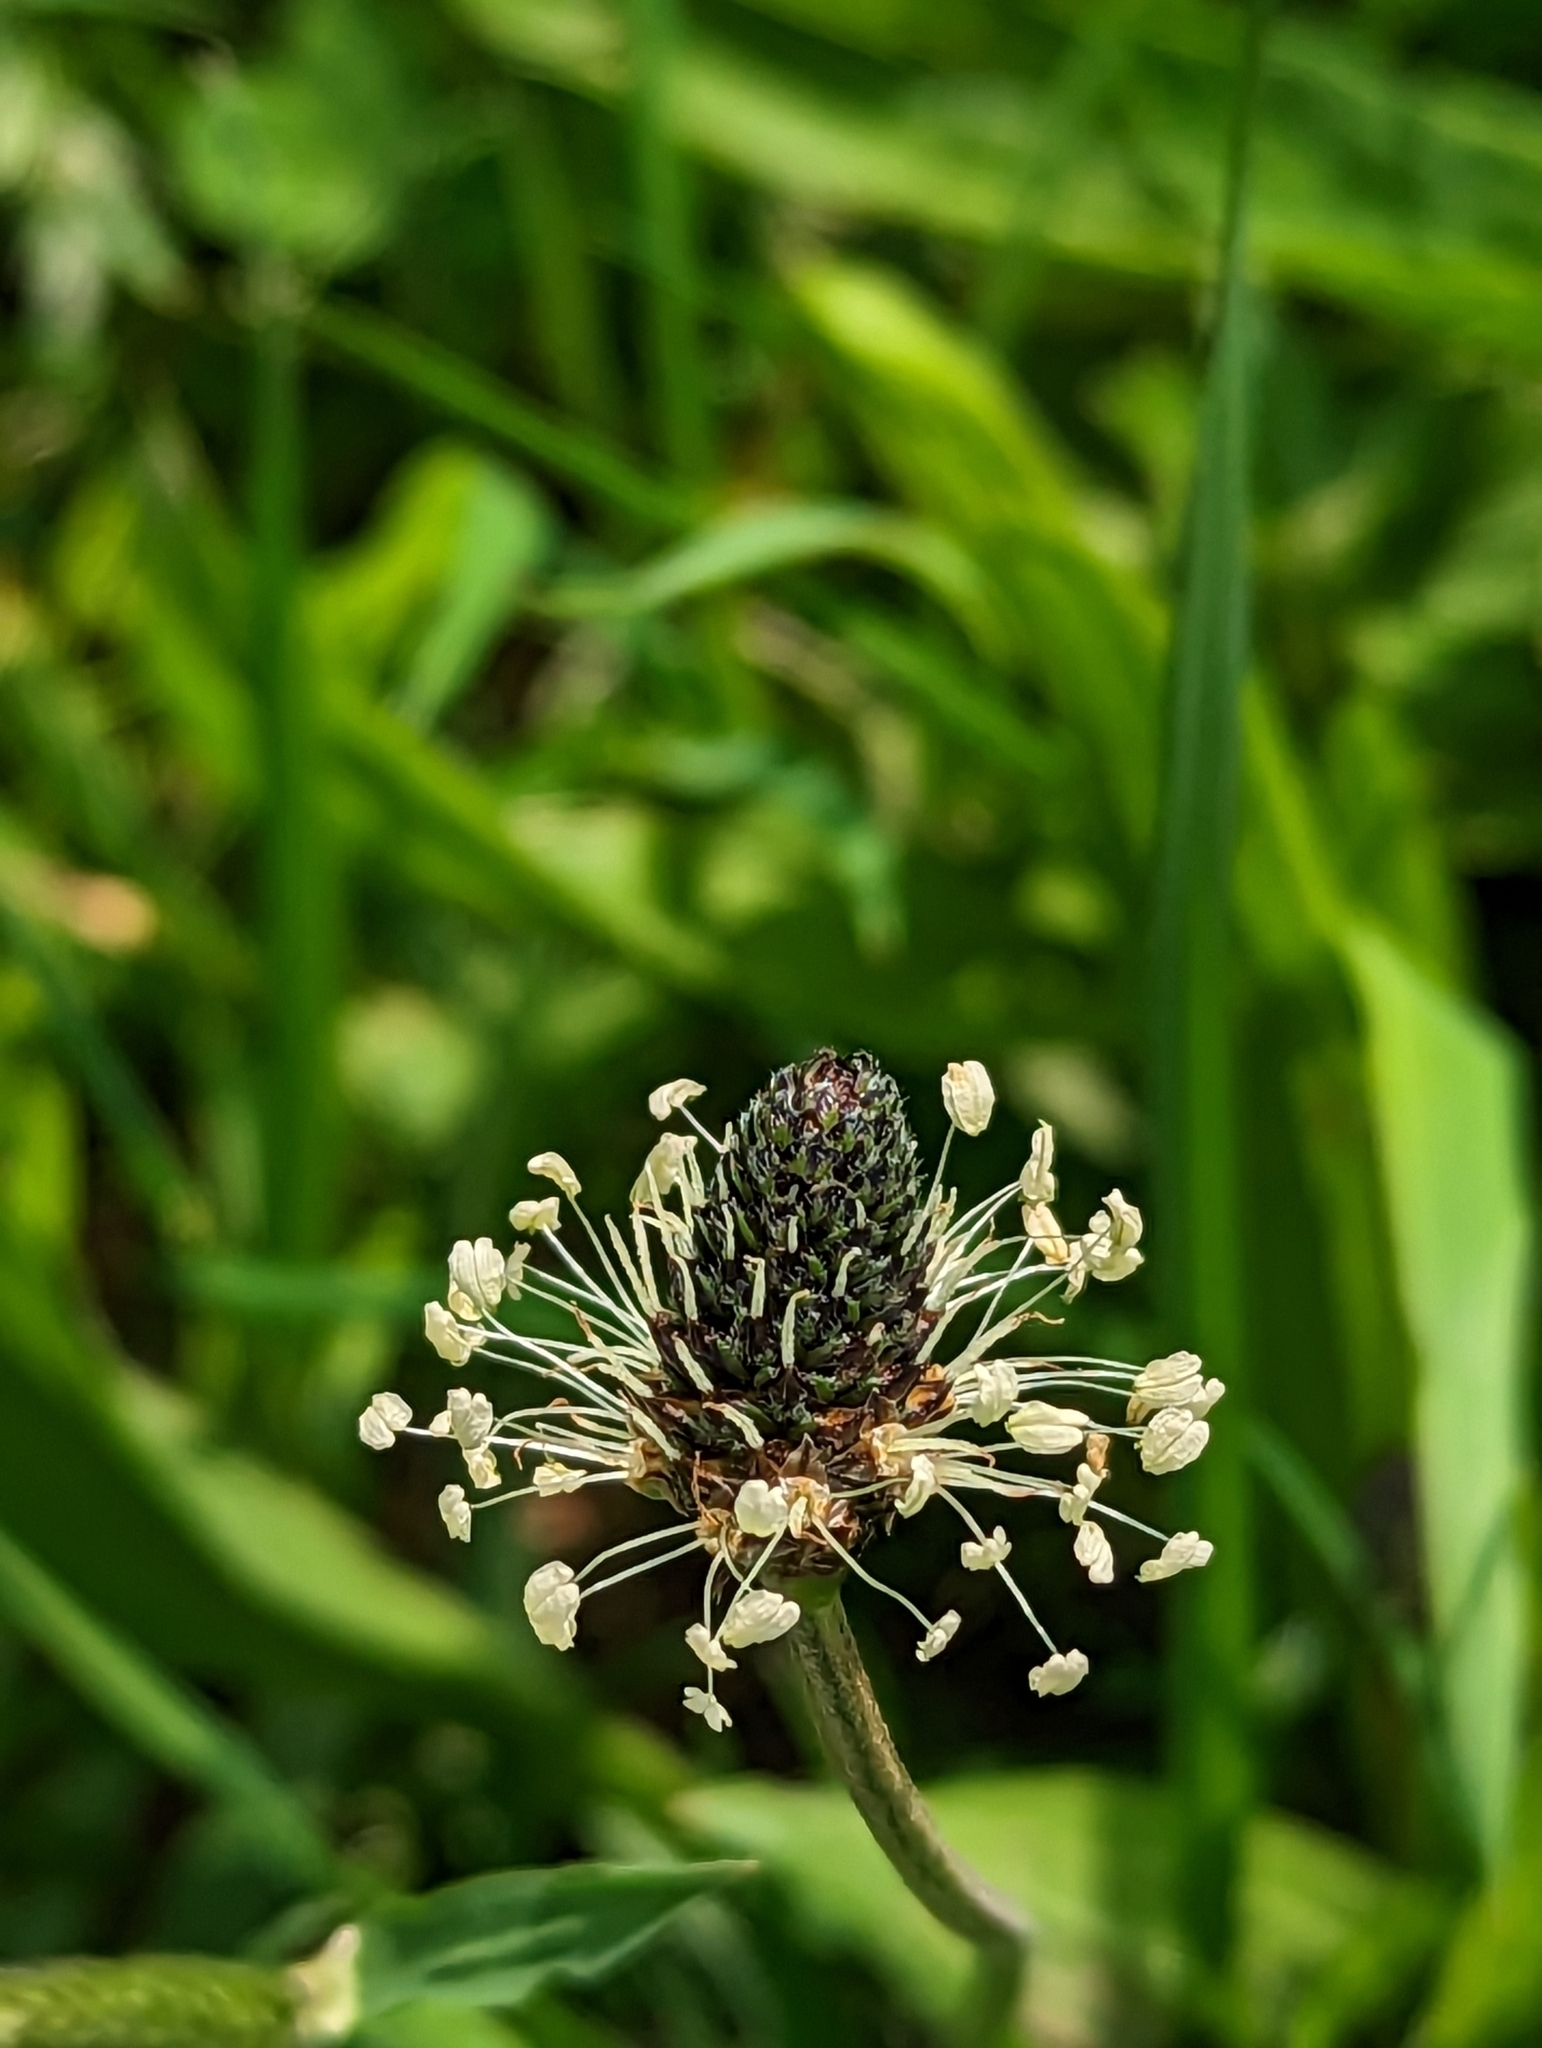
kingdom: Plantae
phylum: Tracheophyta
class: Magnoliopsida
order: Lamiales
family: Plantaginaceae
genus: Plantago
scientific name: Plantago lanceolata
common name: Ribwort plantain
